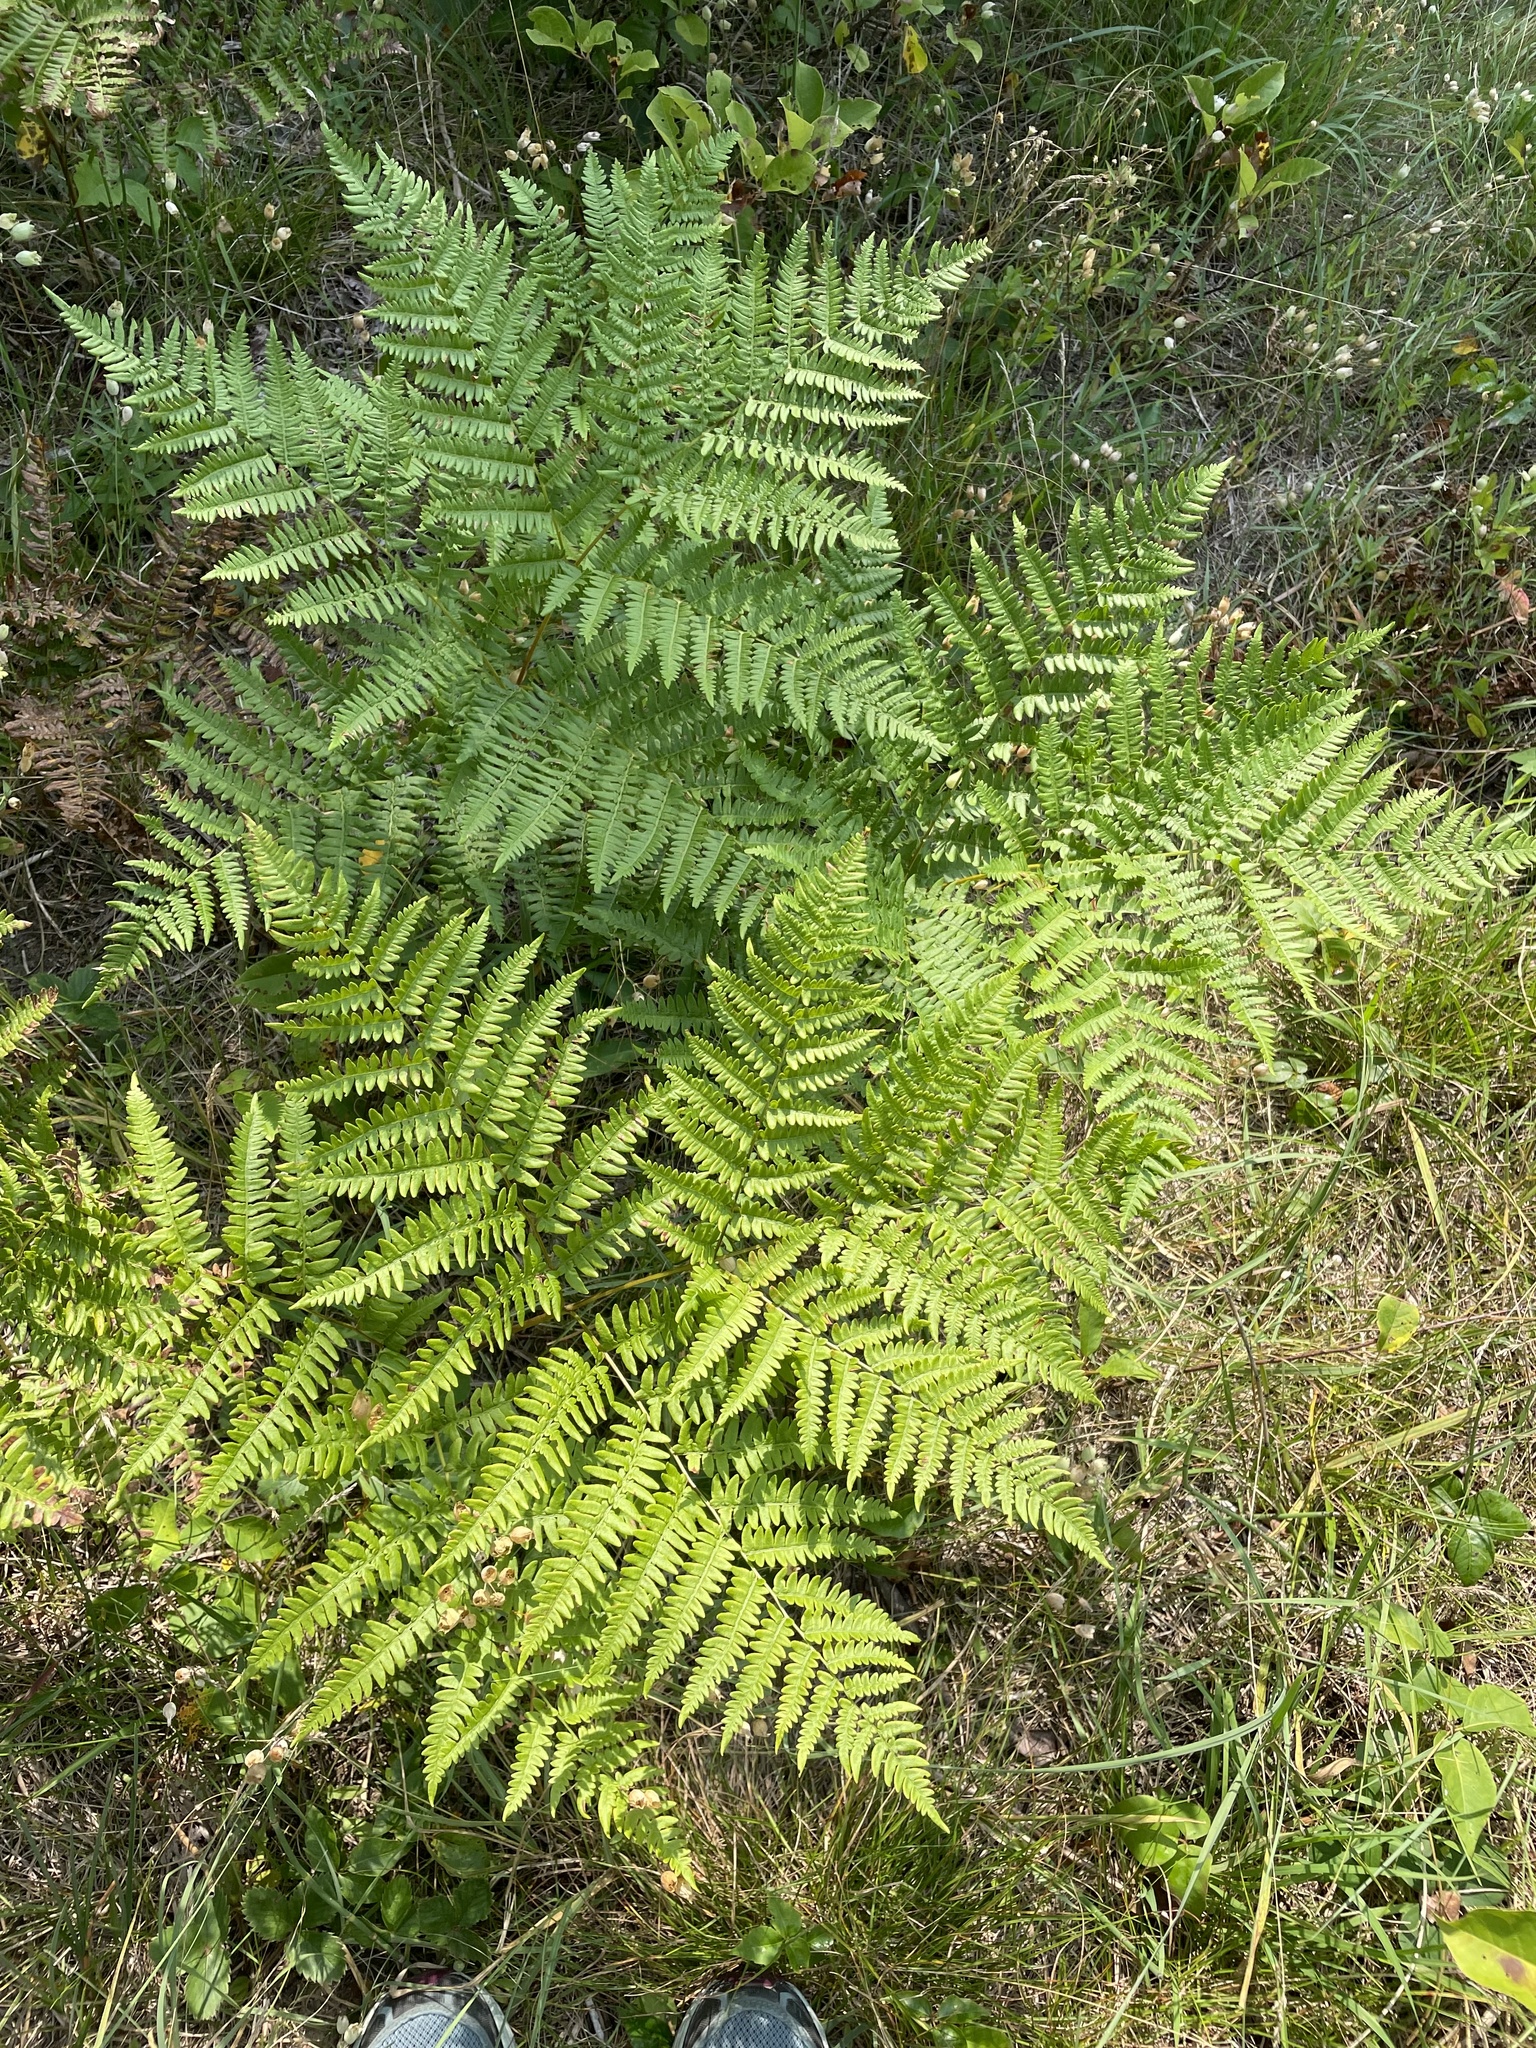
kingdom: Plantae
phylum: Tracheophyta
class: Polypodiopsida
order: Polypodiales
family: Dennstaedtiaceae
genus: Pteridium
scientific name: Pteridium aquilinum
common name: Bracken
